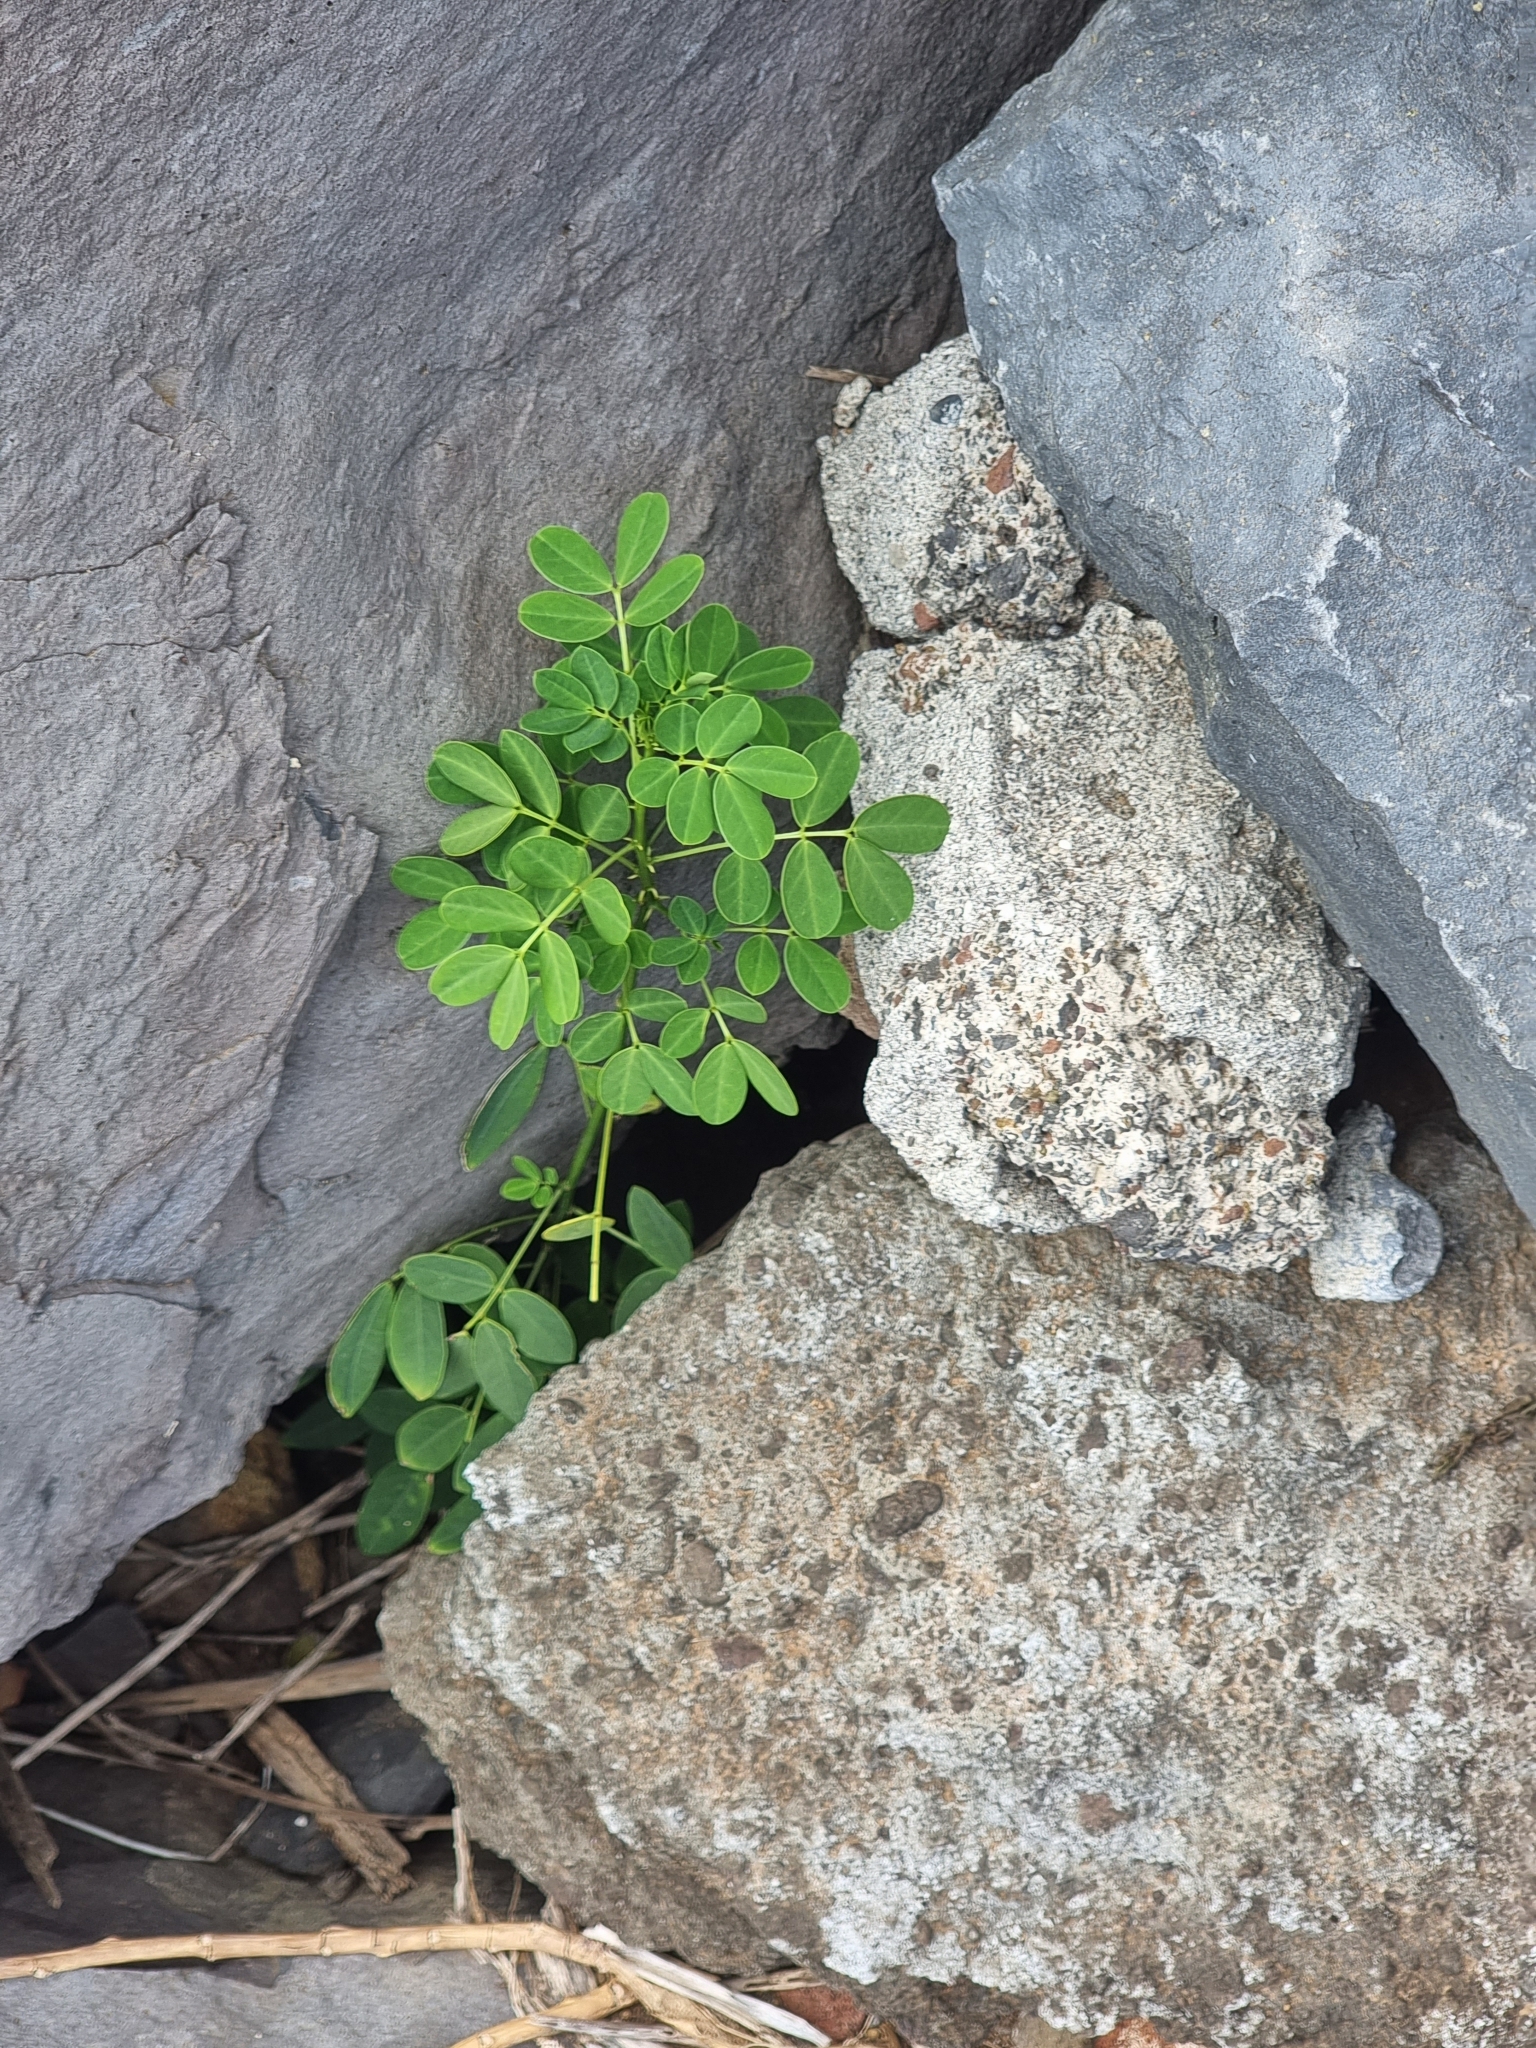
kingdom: Plantae
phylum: Tracheophyta
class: Magnoliopsida
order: Fabales
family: Fabaceae
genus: Senna
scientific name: Senna bicapsularis
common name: Christmasbush
